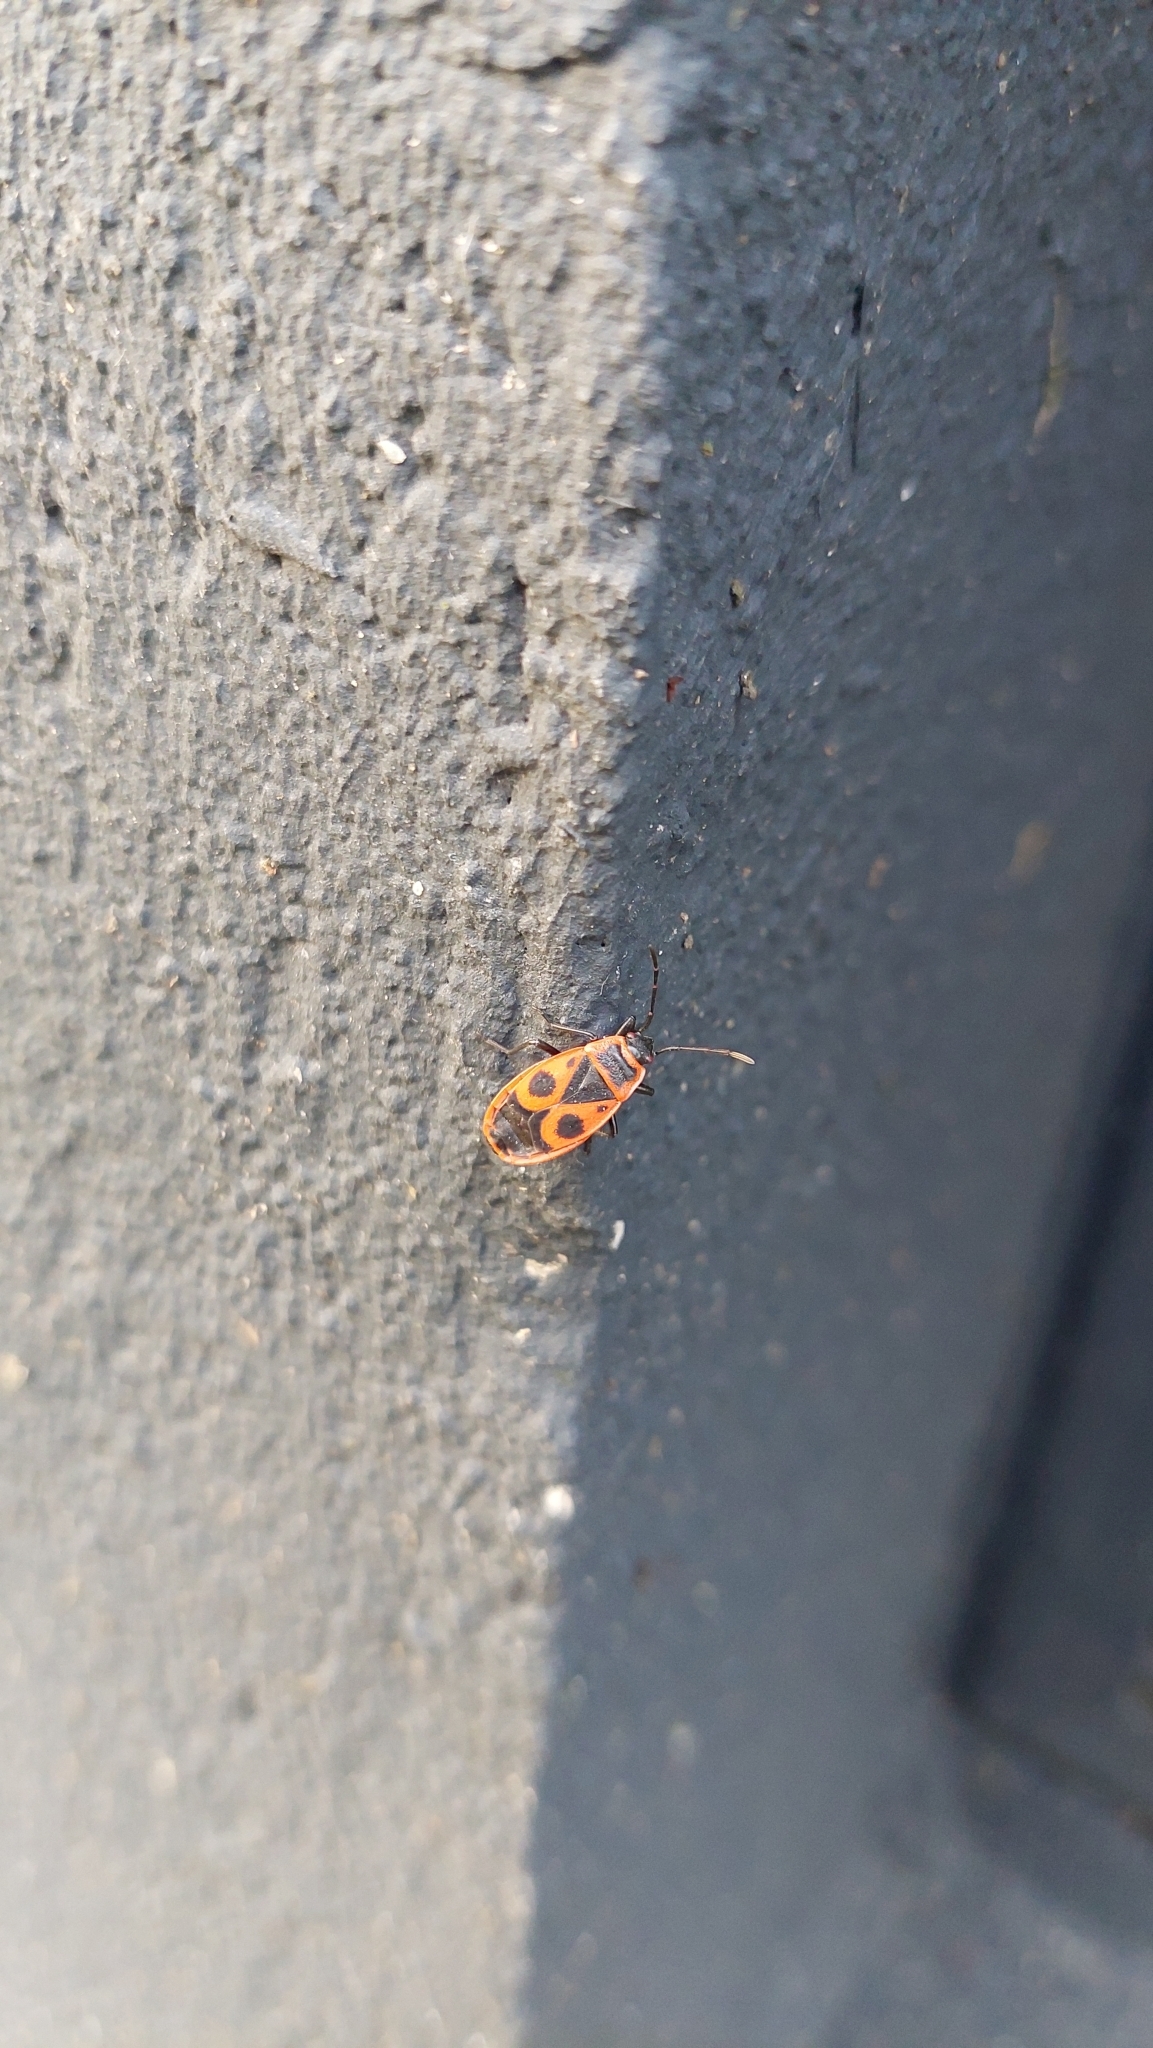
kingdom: Animalia
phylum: Arthropoda
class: Insecta
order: Hemiptera
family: Pyrrhocoridae
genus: Pyrrhocoris
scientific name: Pyrrhocoris apterus
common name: Firebug
